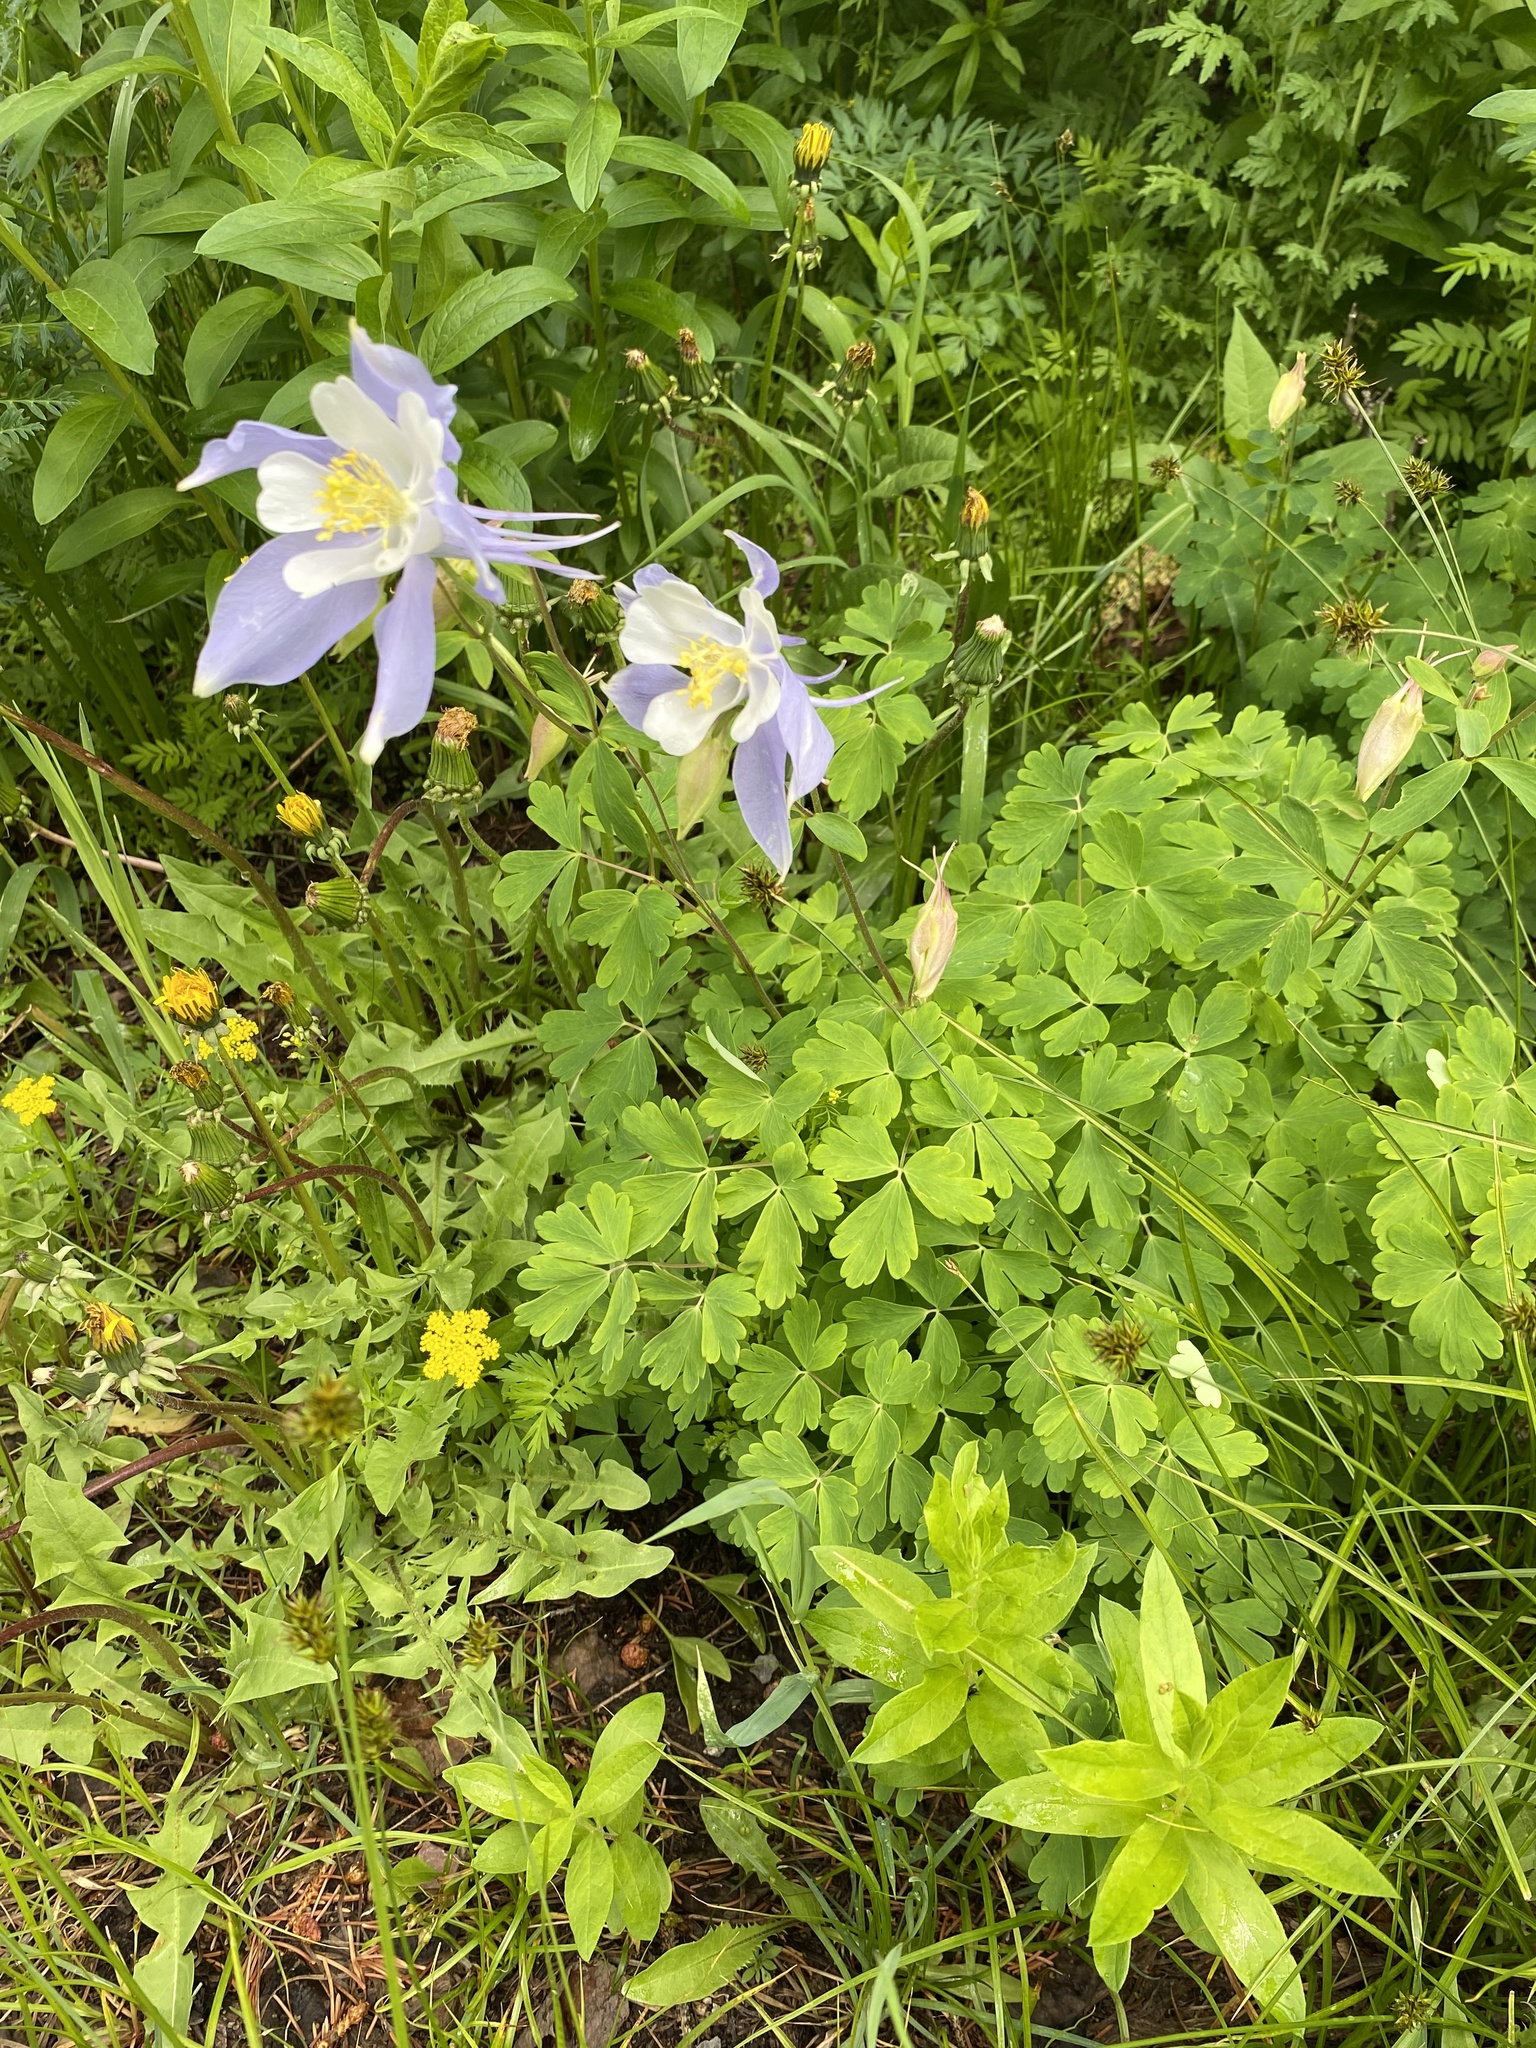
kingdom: Plantae
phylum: Tracheophyta
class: Magnoliopsida
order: Ranunculales
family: Ranunculaceae
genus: Aquilegia
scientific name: Aquilegia coerulea
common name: Rocky mountain columbine
